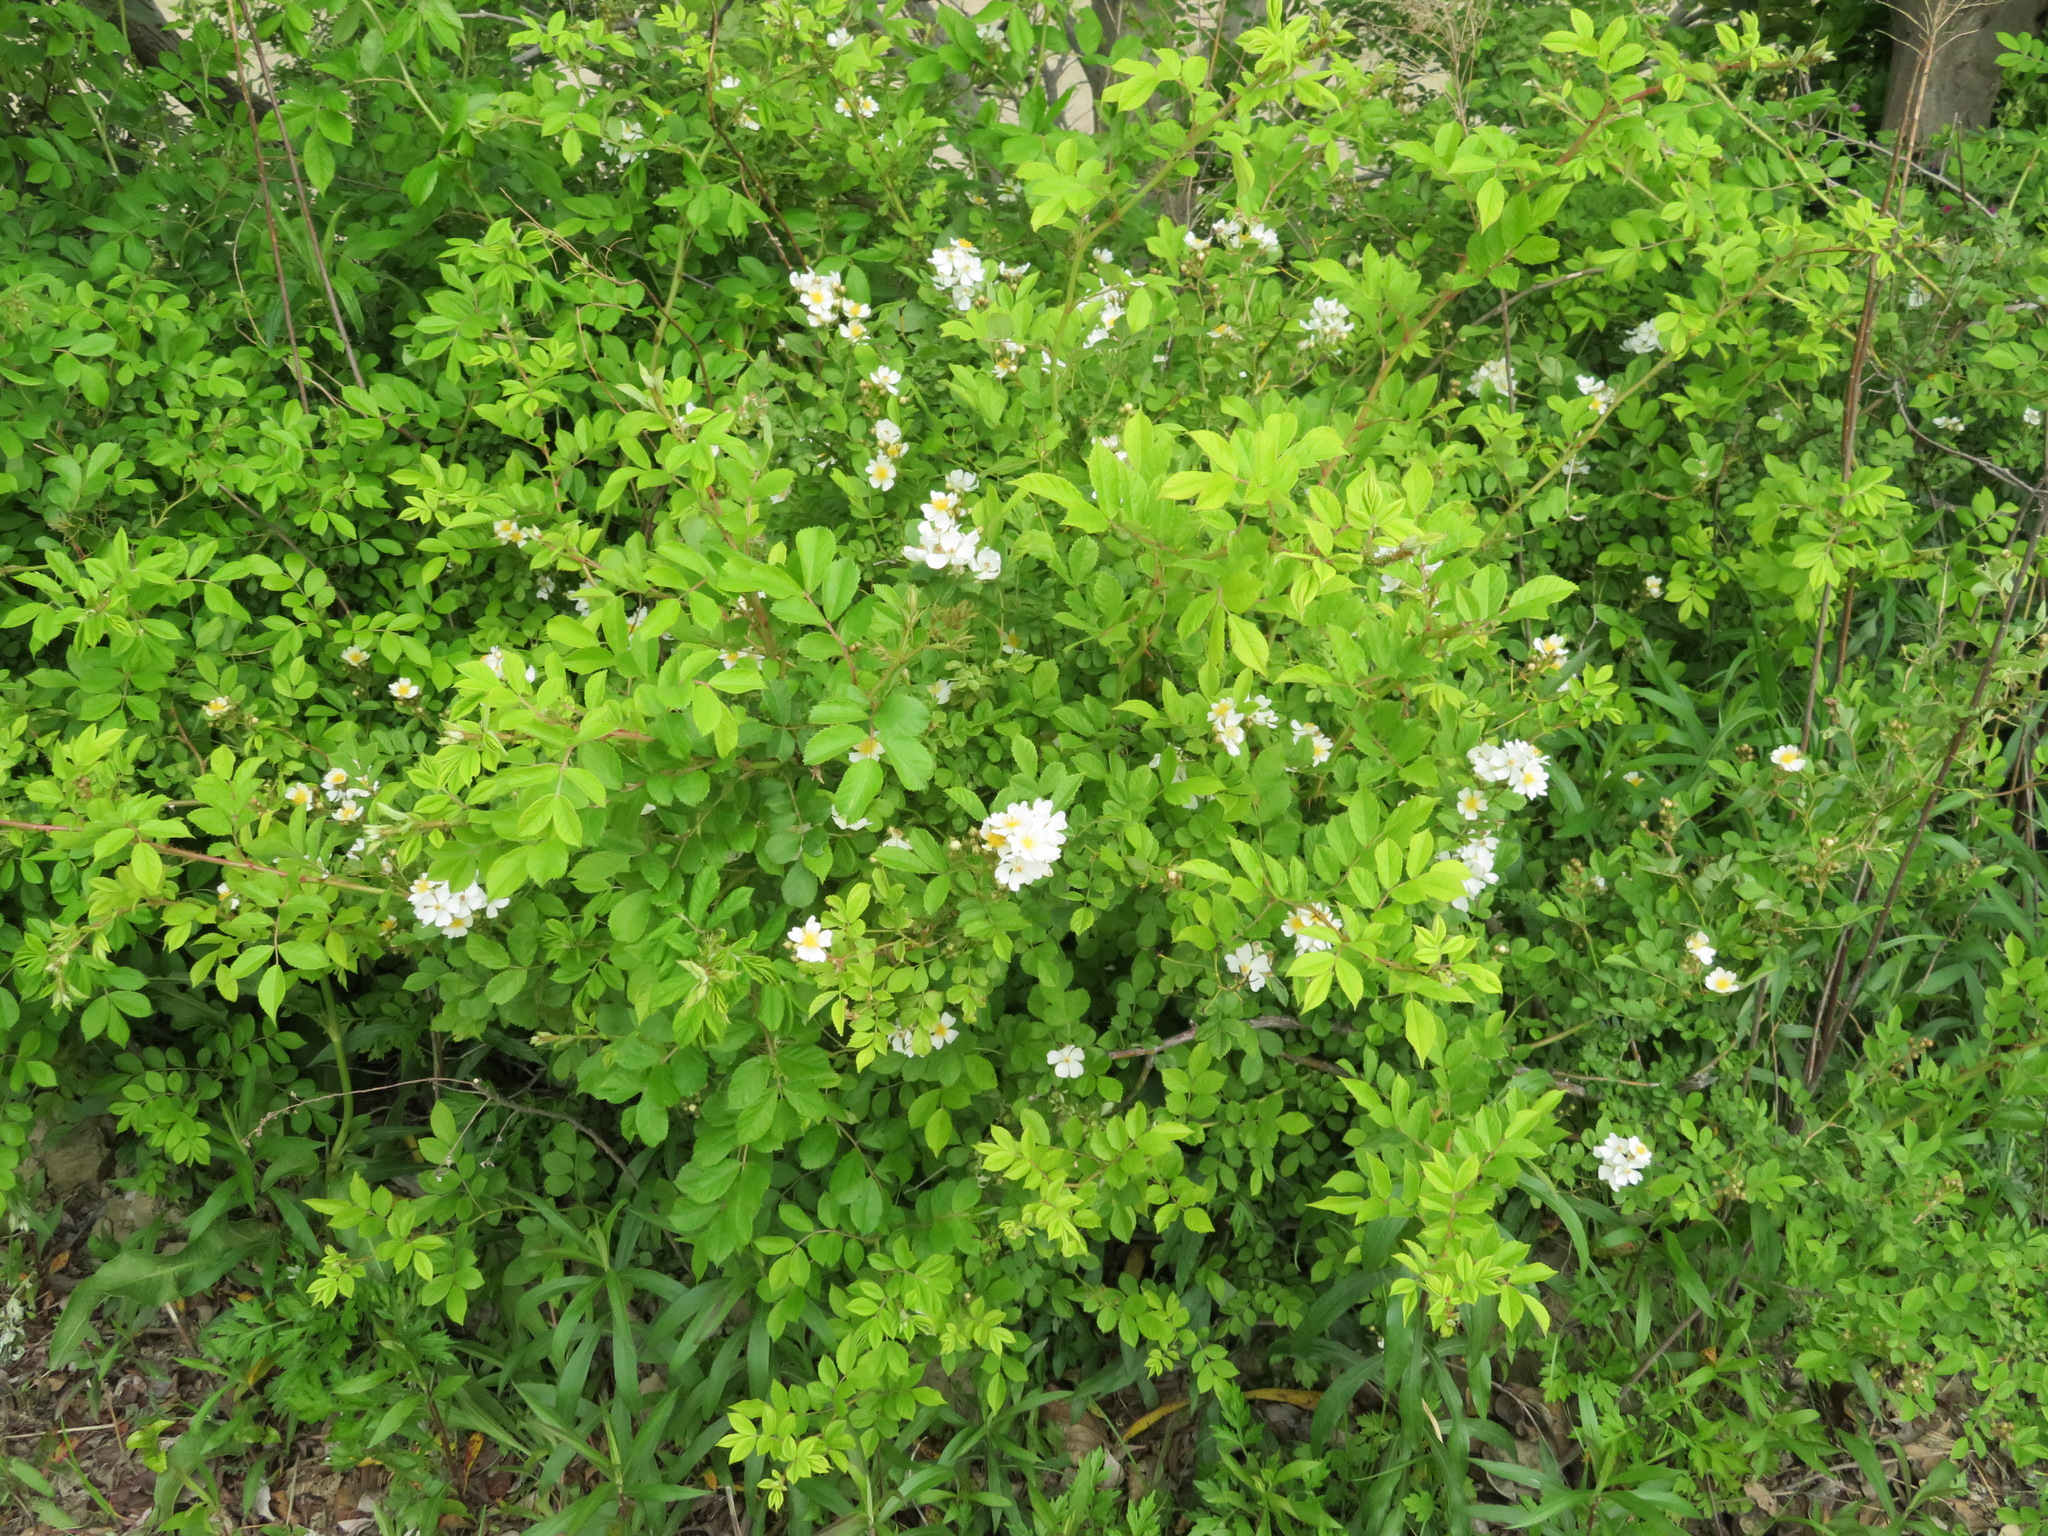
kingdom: Plantae
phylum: Tracheophyta
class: Magnoliopsida
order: Rosales
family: Rosaceae
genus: Rosa
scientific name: Rosa multiflora
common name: Multiflora rose
